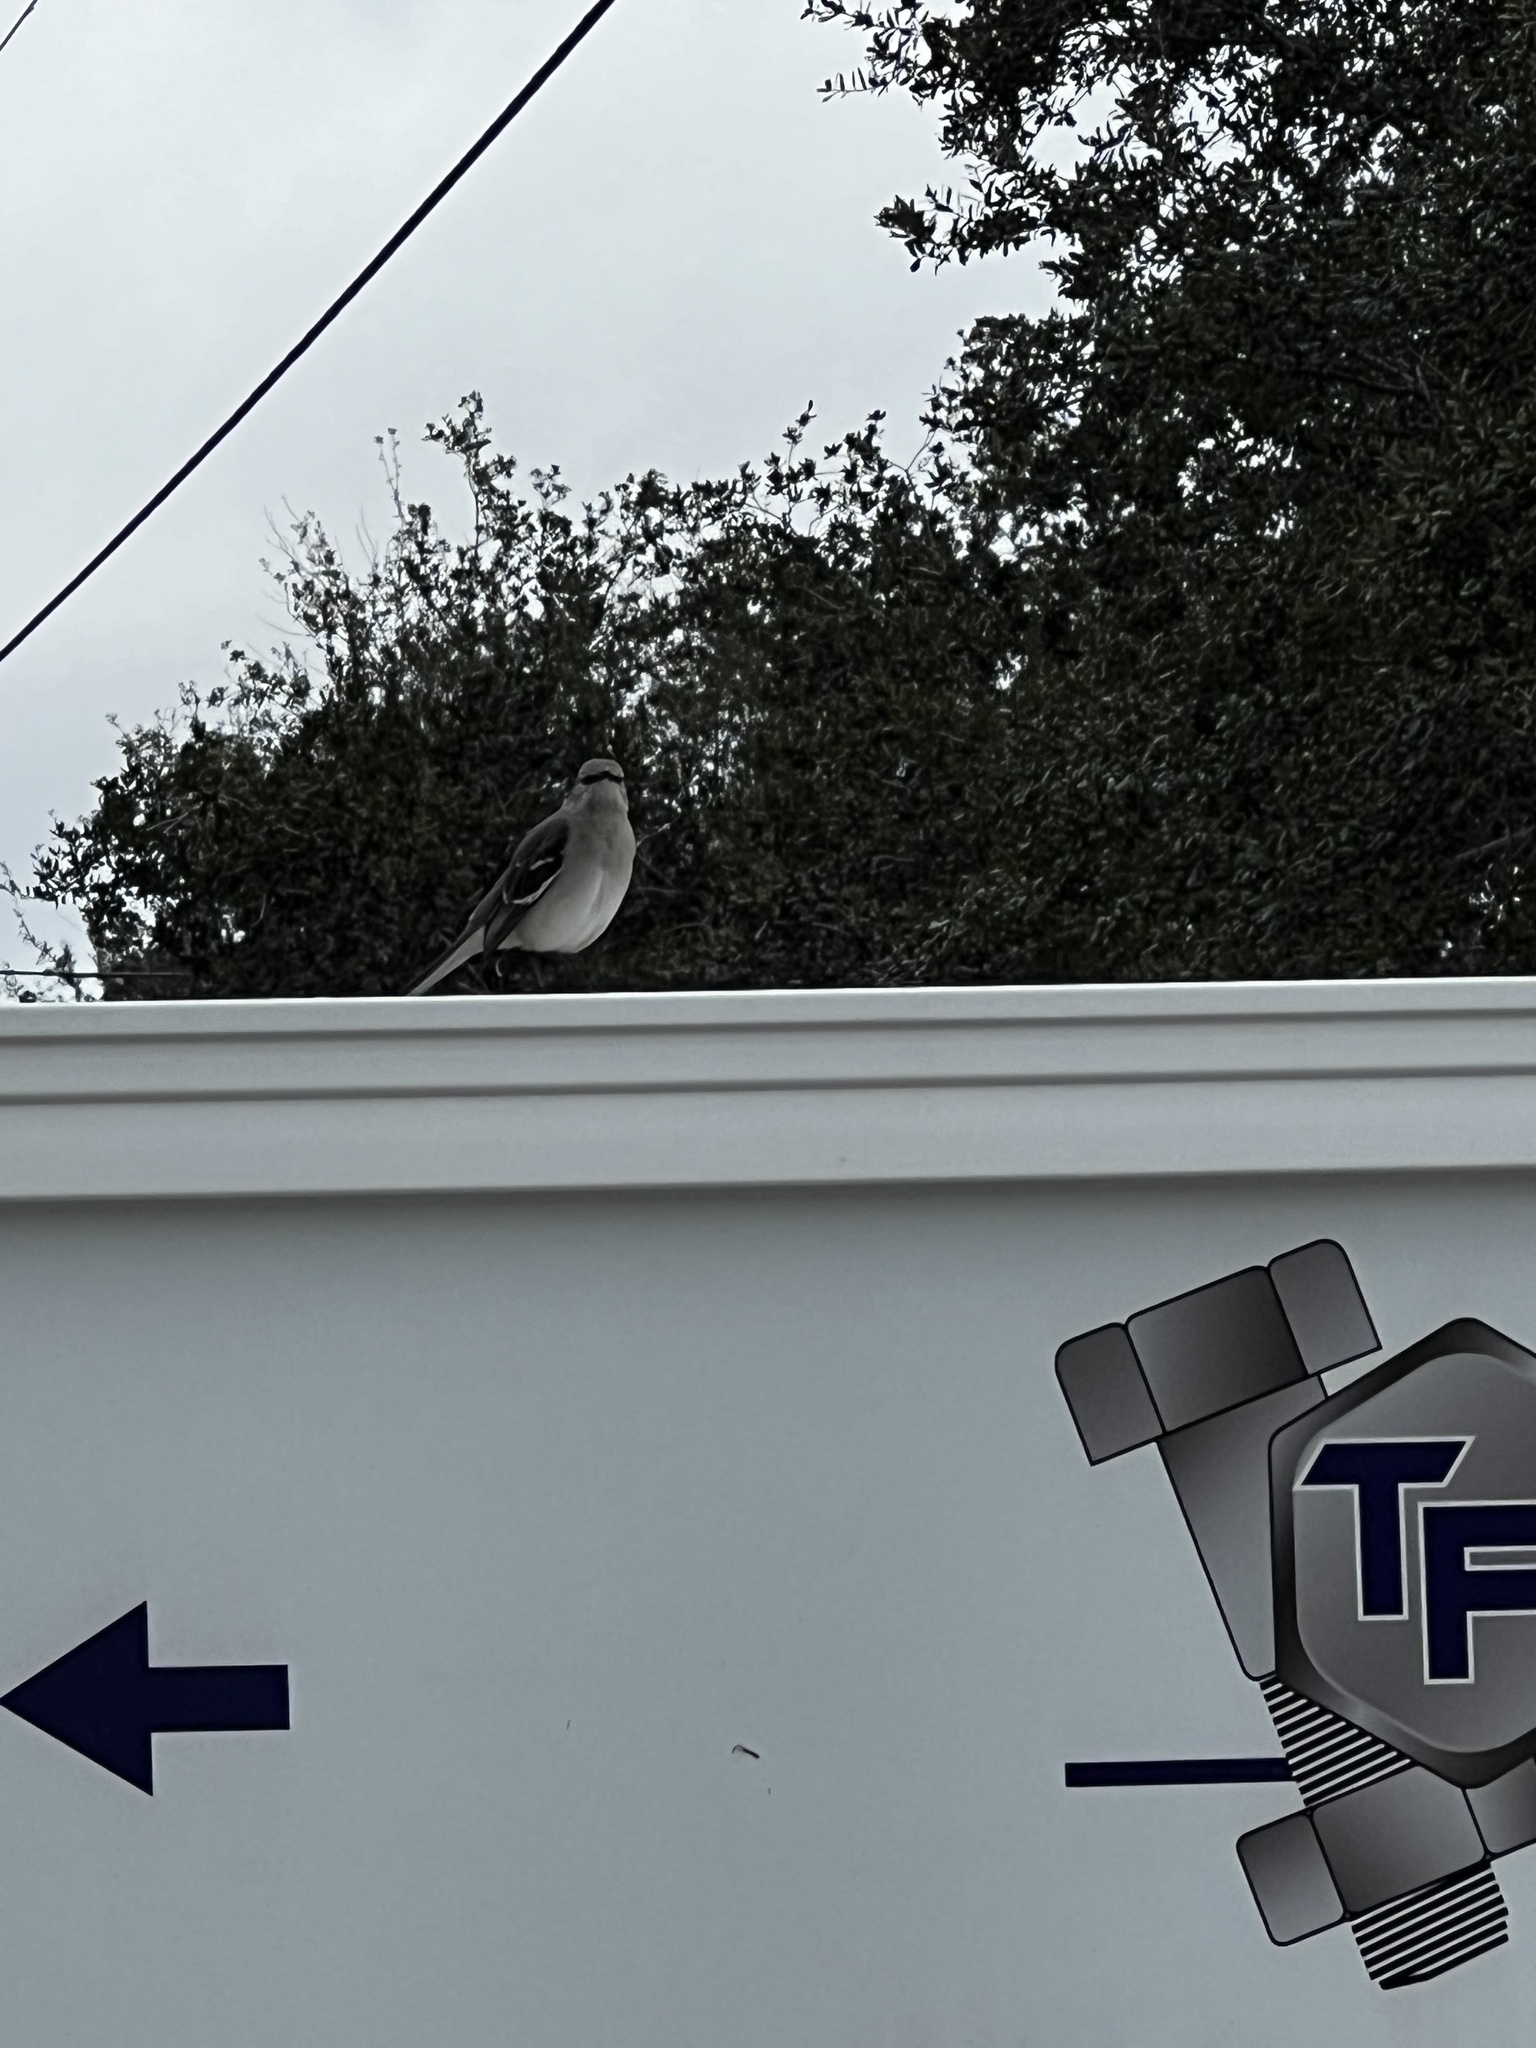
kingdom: Animalia
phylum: Chordata
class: Aves
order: Passeriformes
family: Mimidae
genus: Mimus
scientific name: Mimus polyglottos
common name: Northern mockingbird
